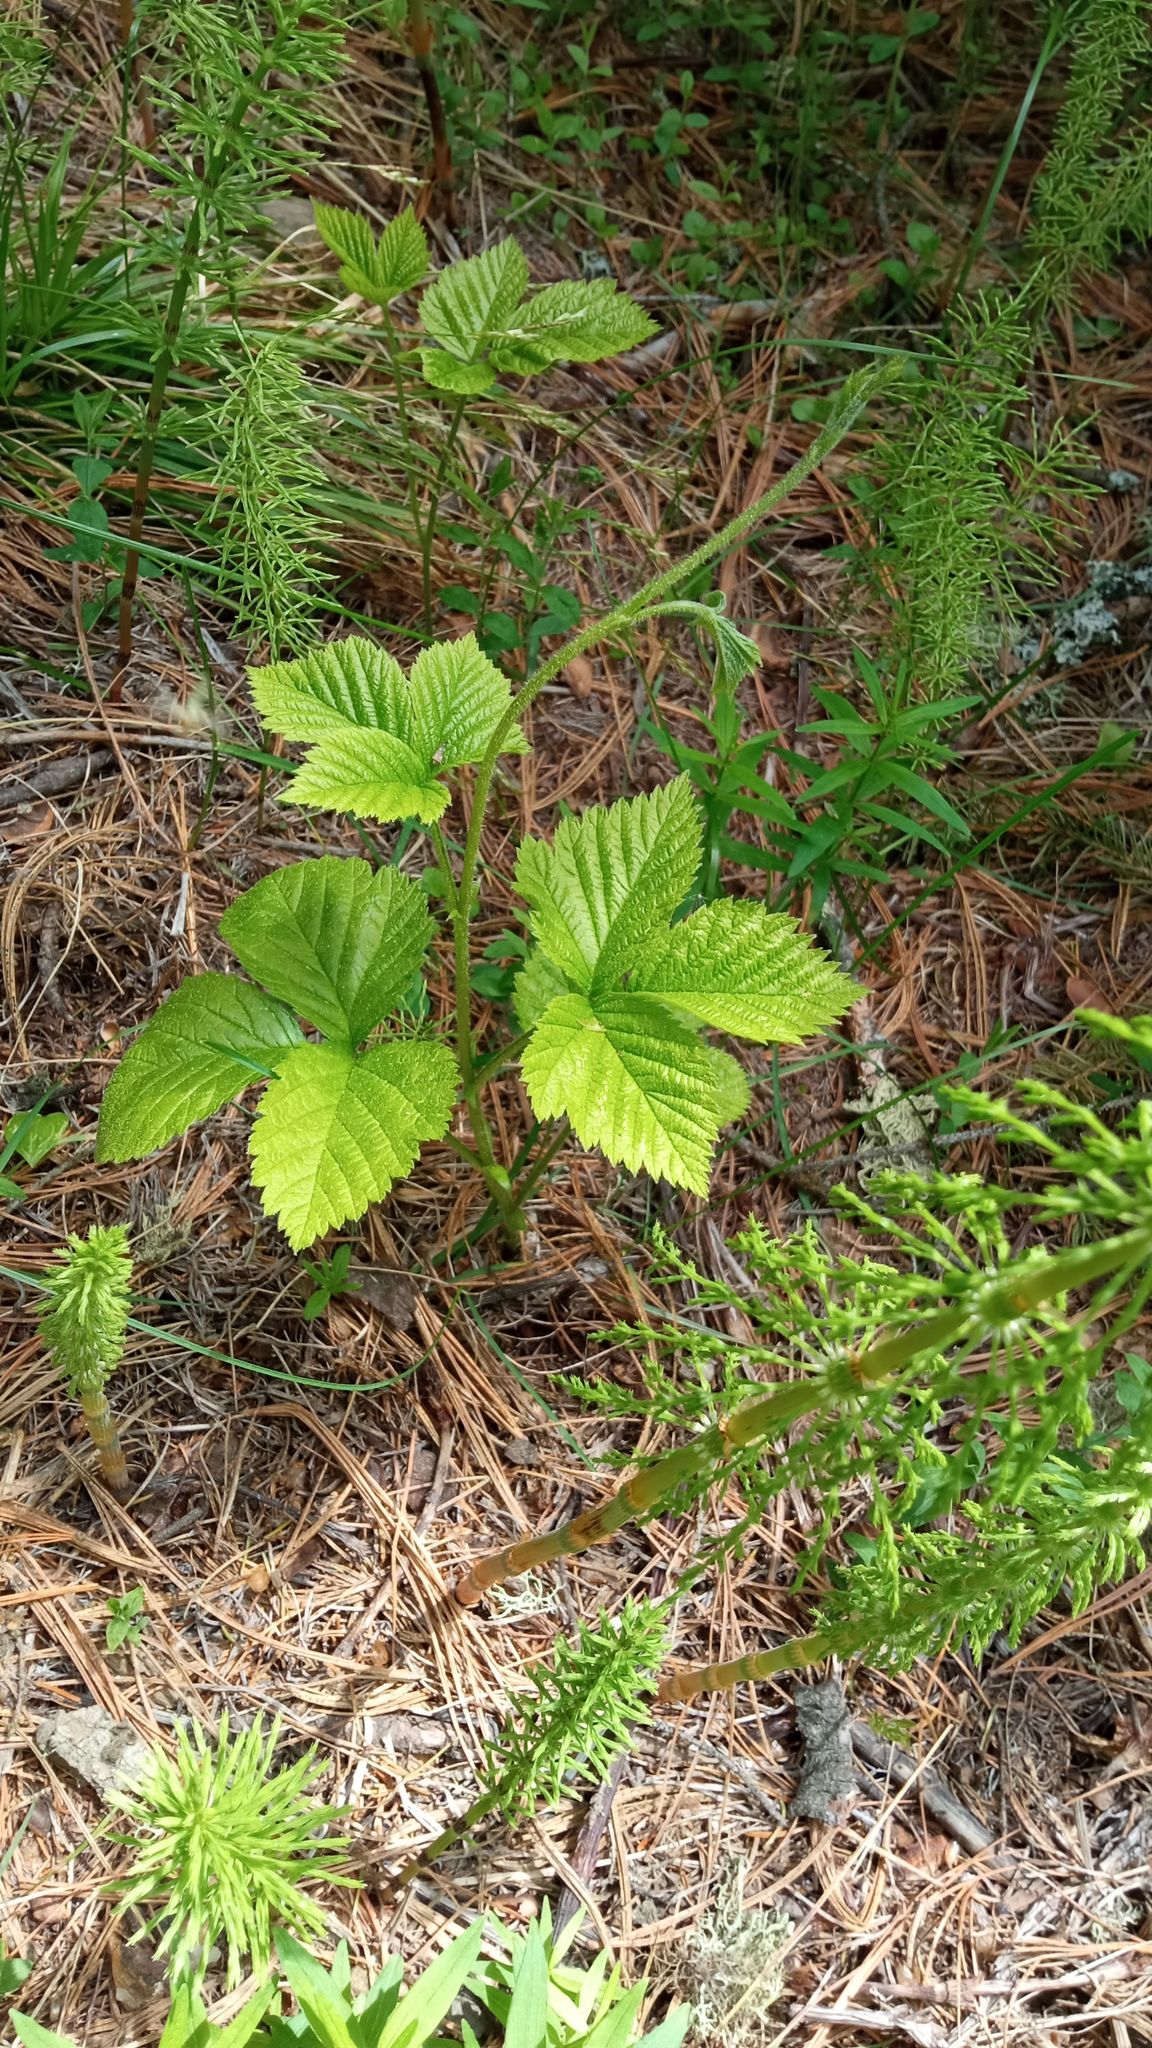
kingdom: Plantae
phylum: Tracheophyta
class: Magnoliopsida
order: Rosales
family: Rosaceae
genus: Rubus
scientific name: Rubus saxatilis
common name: Stone bramble
